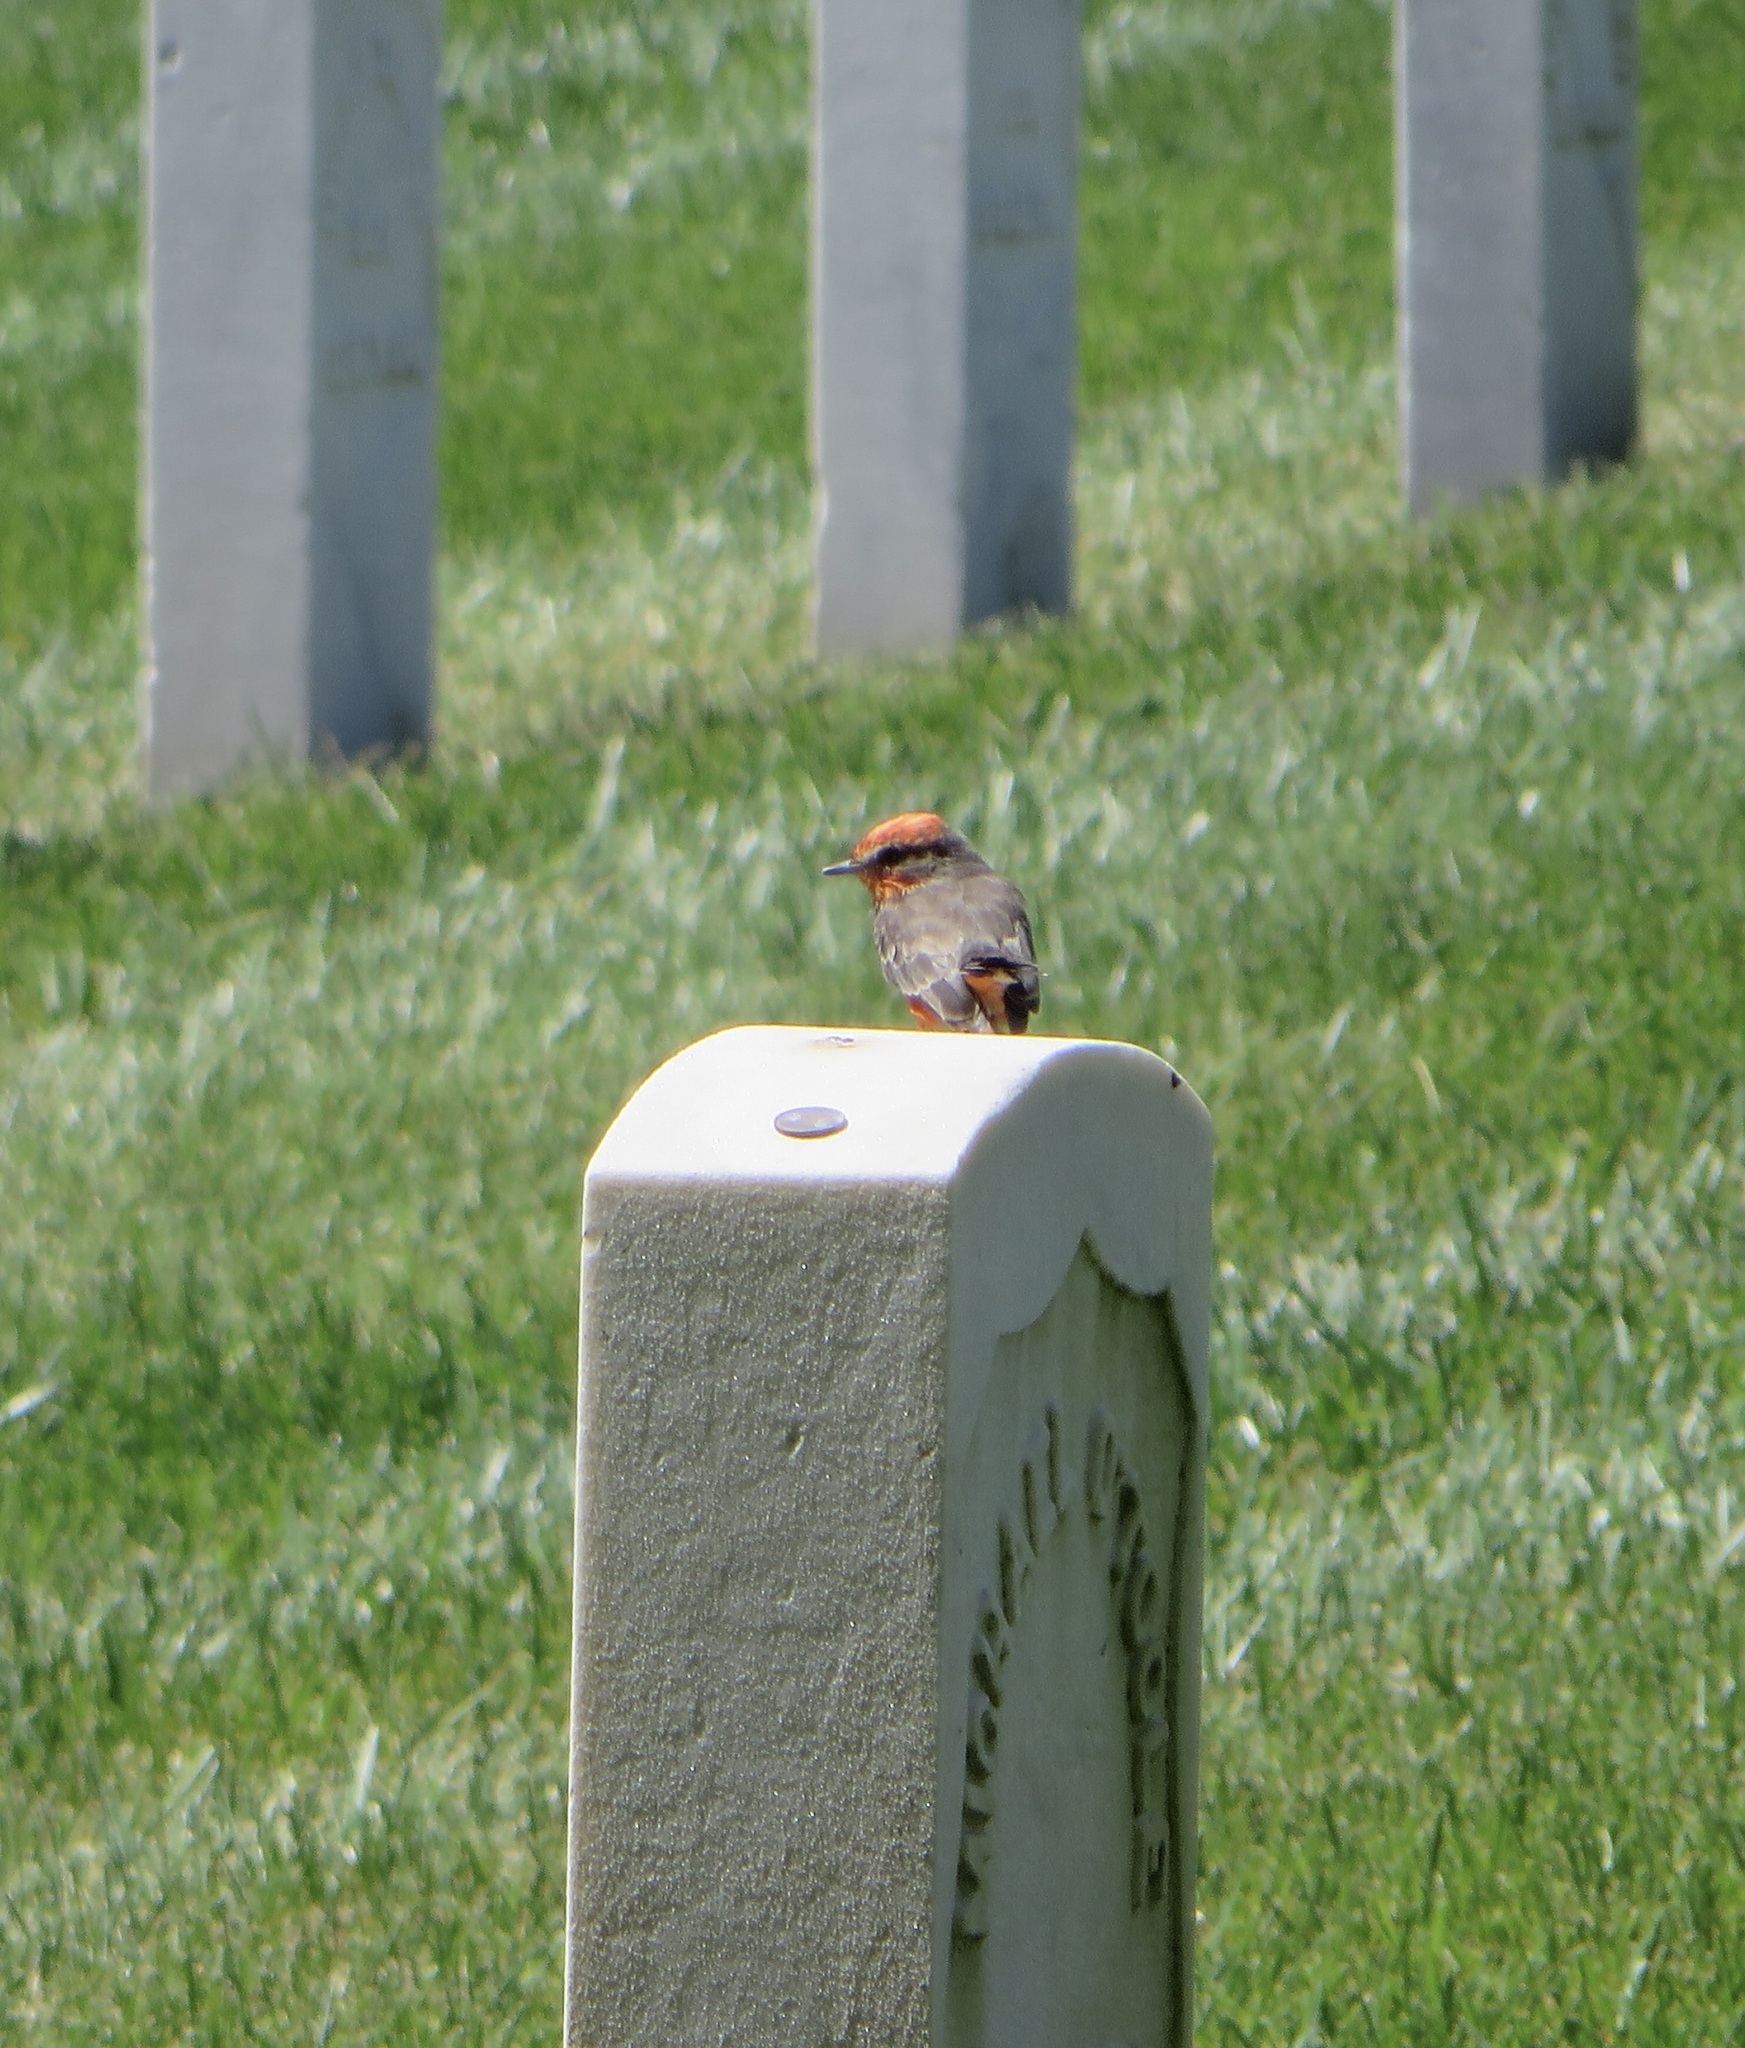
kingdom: Animalia
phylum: Chordata
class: Aves
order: Passeriformes
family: Tyrannidae
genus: Pyrocephalus
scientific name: Pyrocephalus rubinus
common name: Vermilion flycatcher
